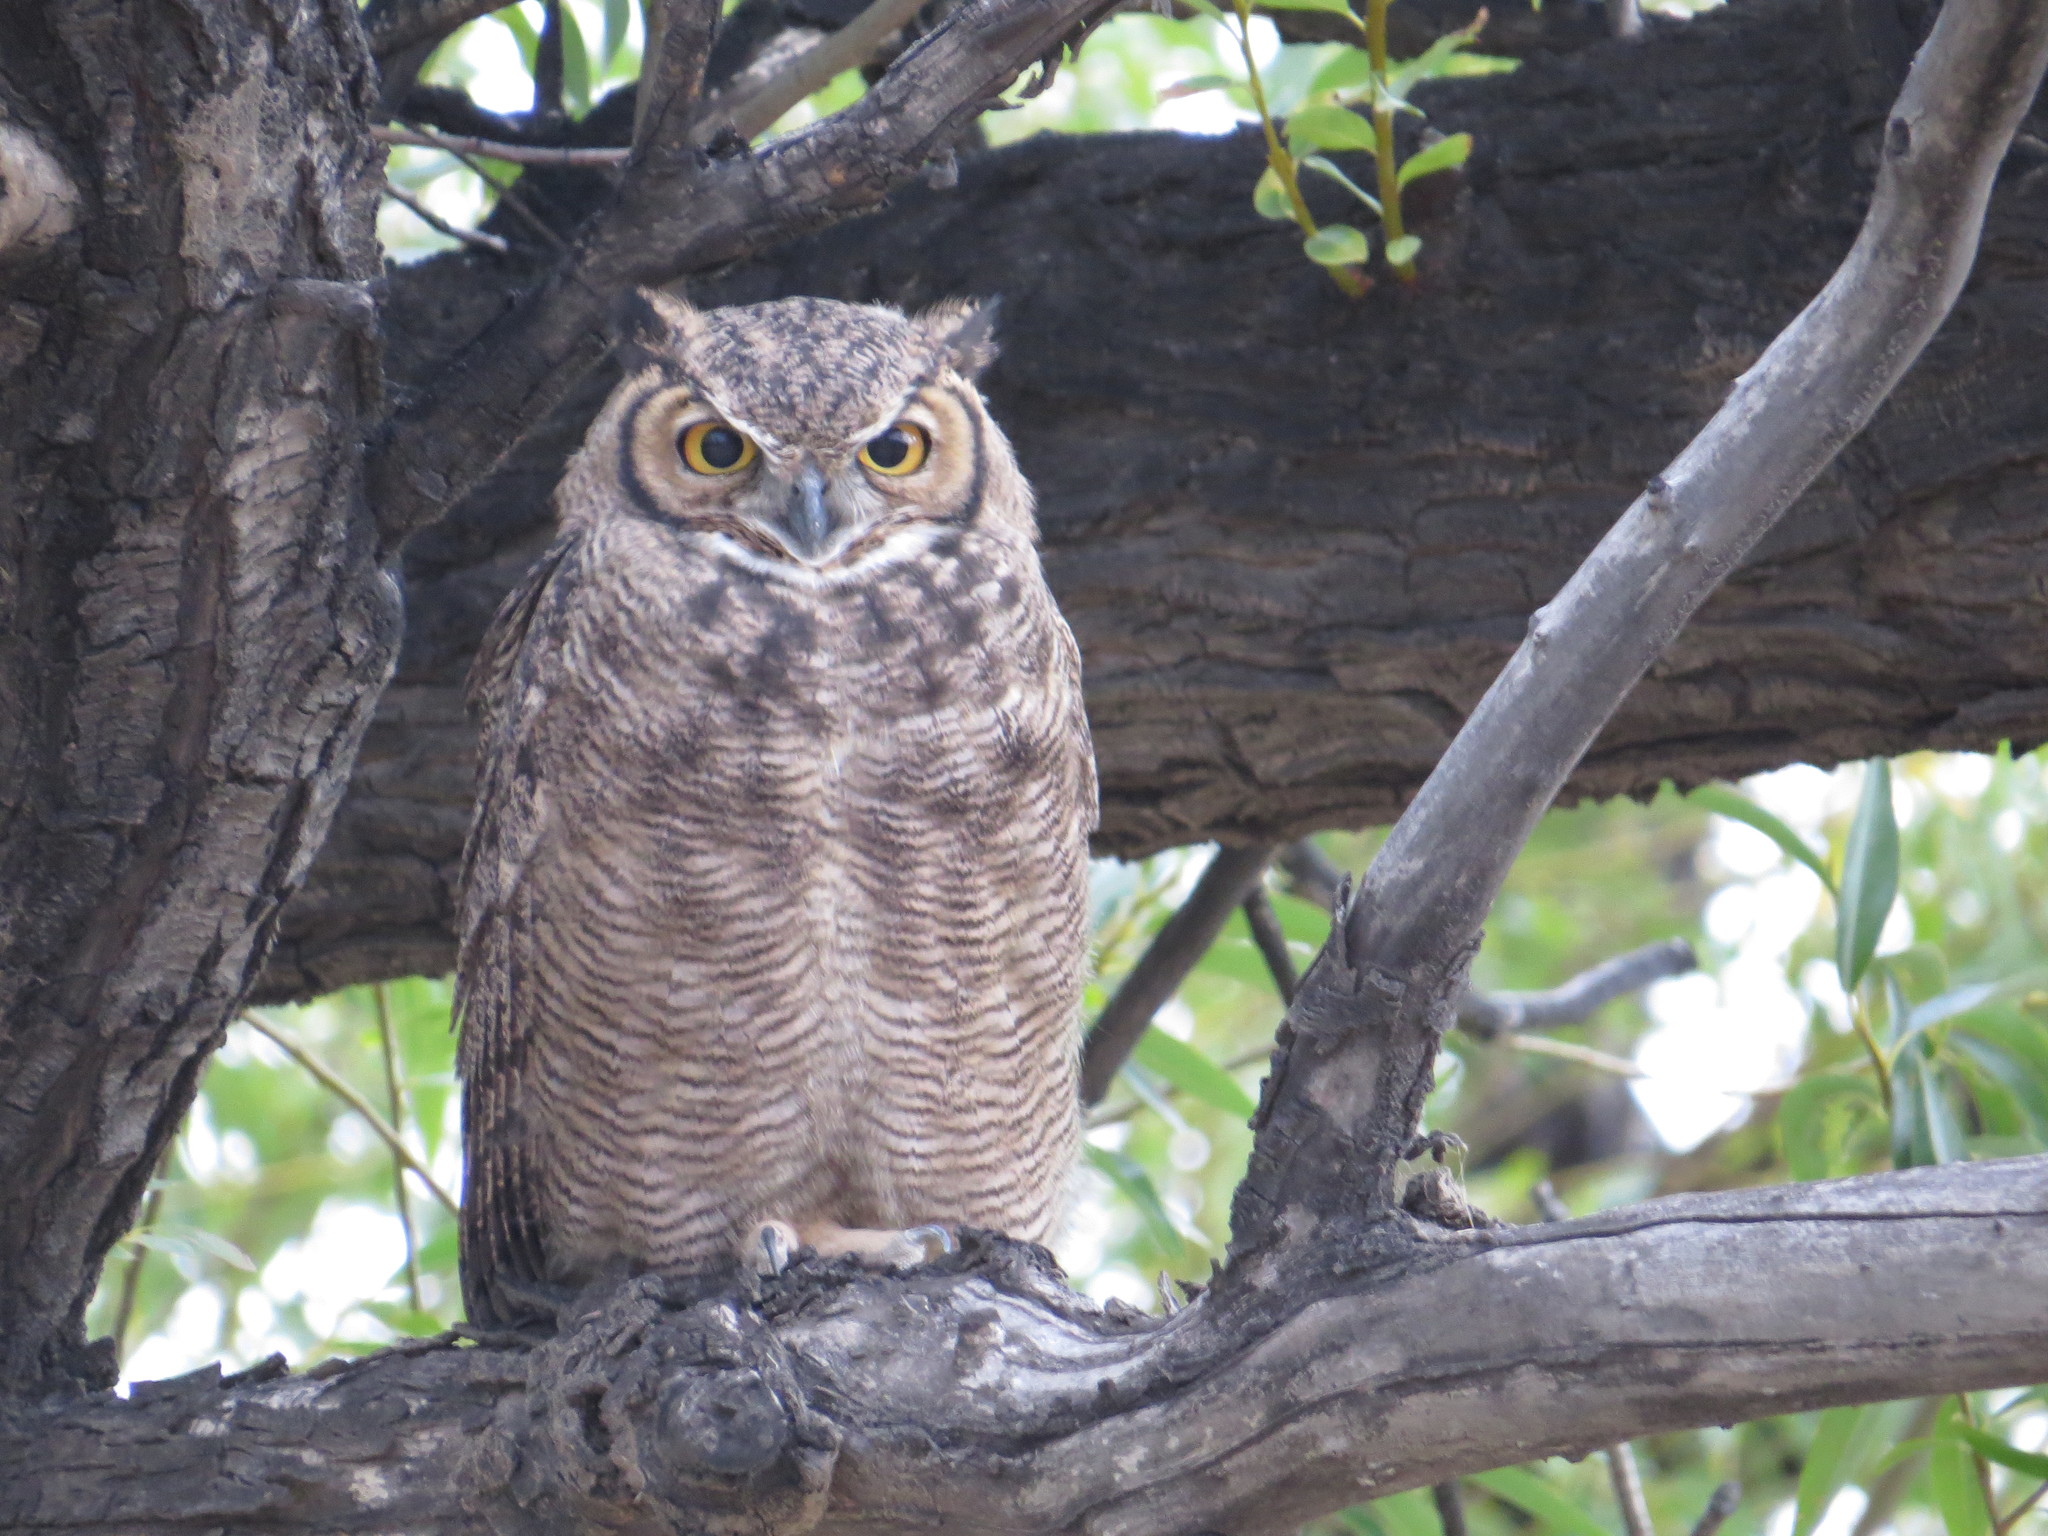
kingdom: Animalia
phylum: Chordata
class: Aves
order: Strigiformes
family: Strigidae
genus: Bubo
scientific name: Bubo magellanicus
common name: Lesser horned owl
